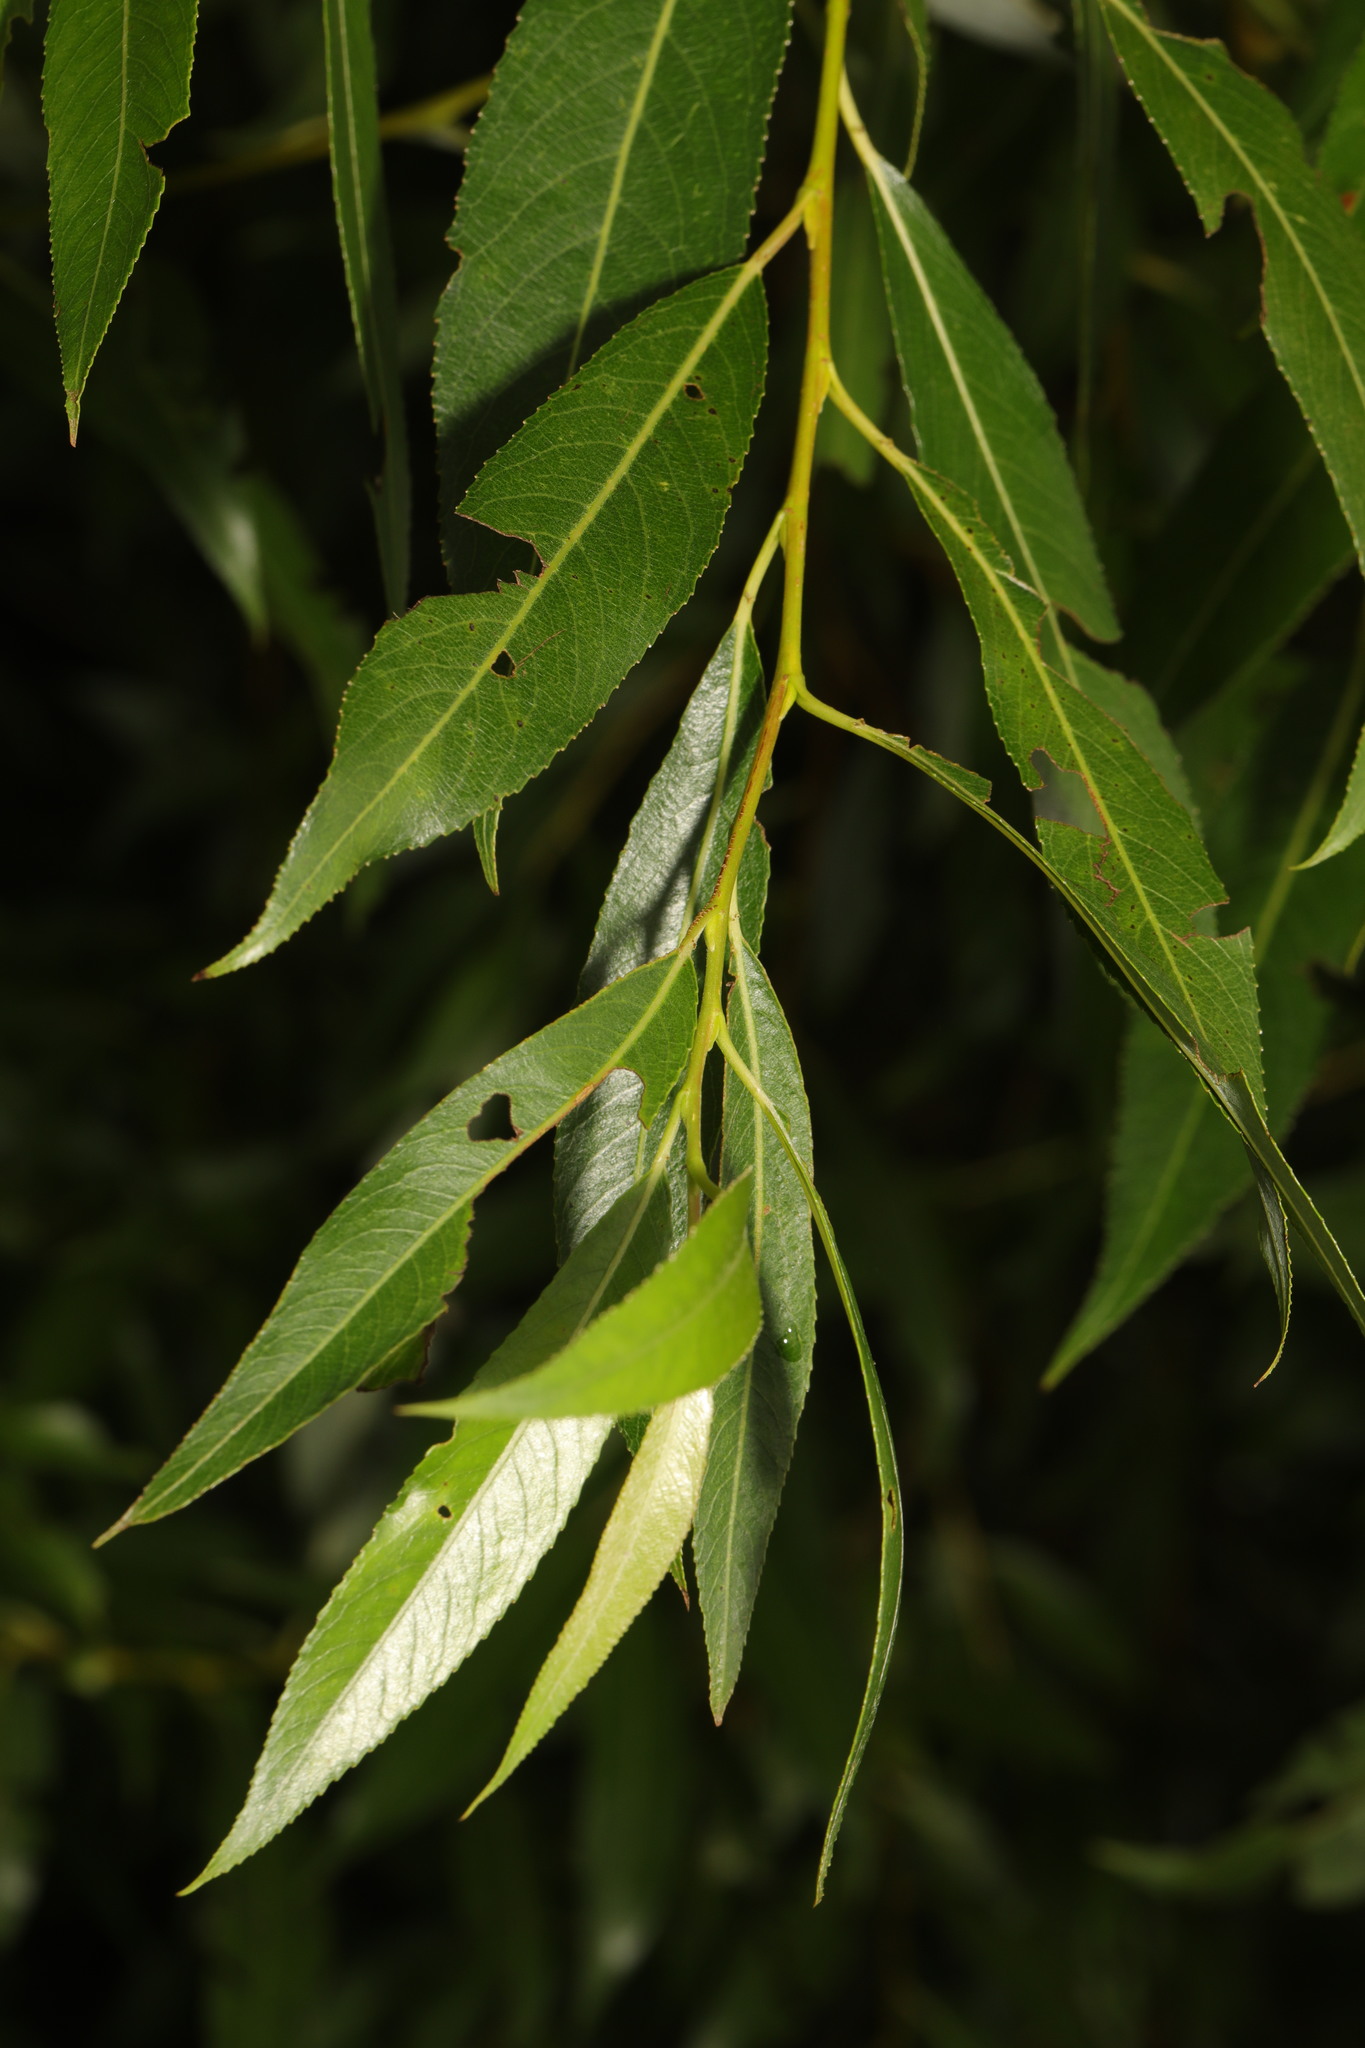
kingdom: Plantae
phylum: Tracheophyta
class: Magnoliopsida
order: Malpighiales
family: Salicaceae
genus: Salix
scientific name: Salix fragilis
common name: Crack willow
